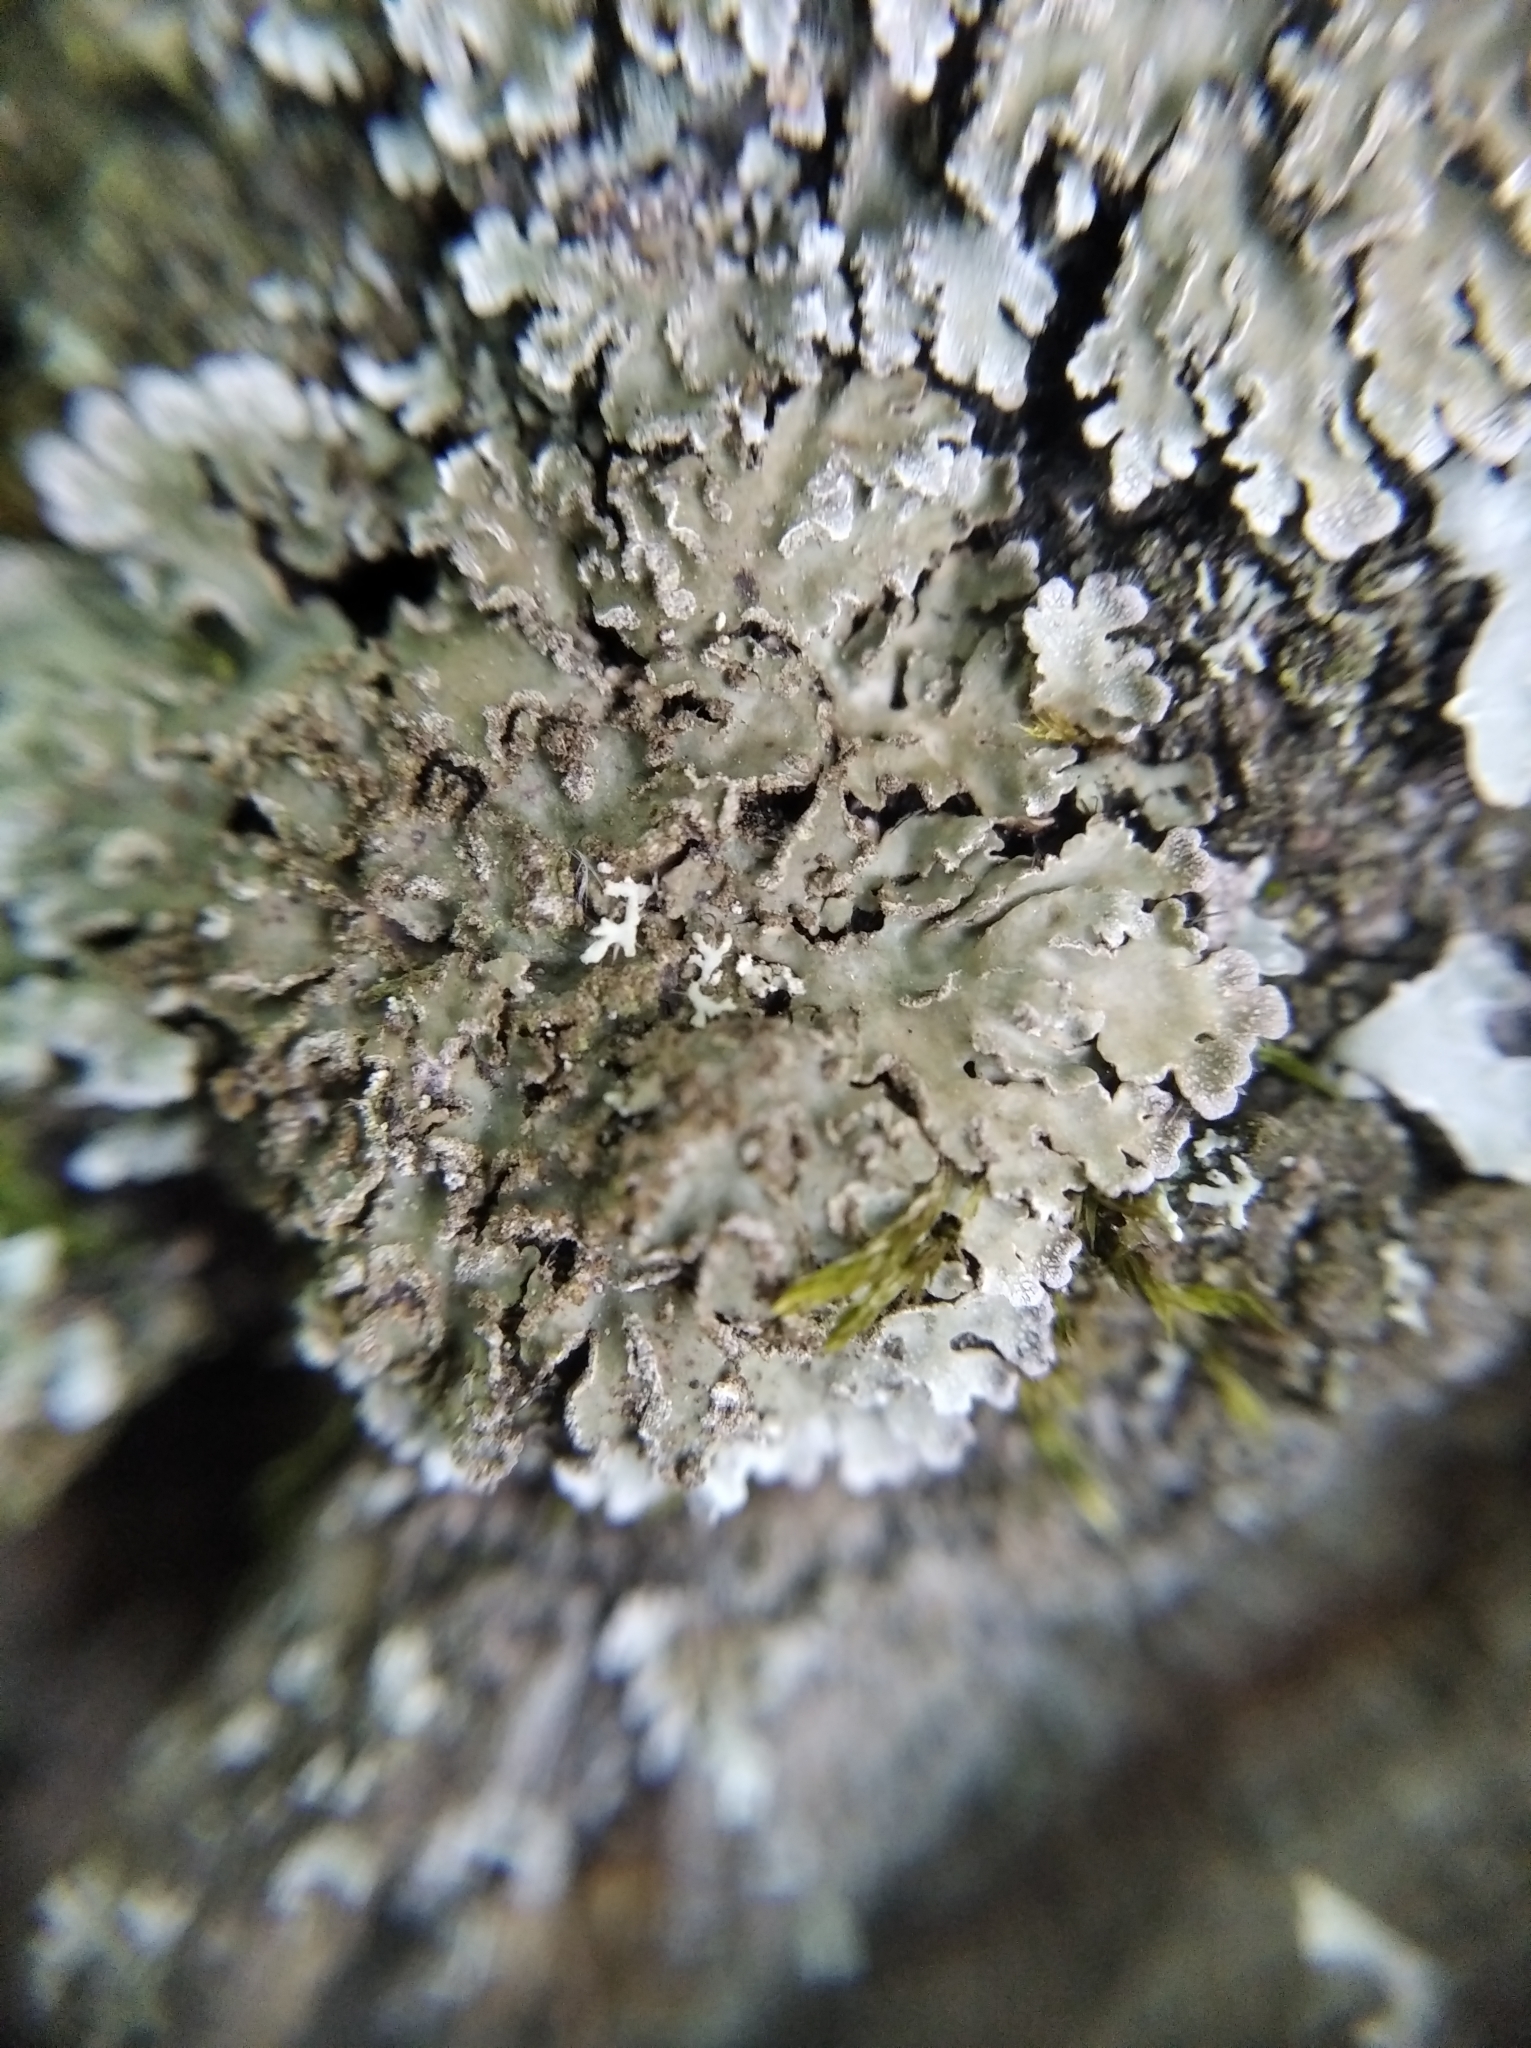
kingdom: Fungi
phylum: Ascomycota
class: Lecanoromycetes
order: Caliciales
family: Physciaceae
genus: Physconia
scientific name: Physconia enteroxantha
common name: Yellow-edged frost lichen
